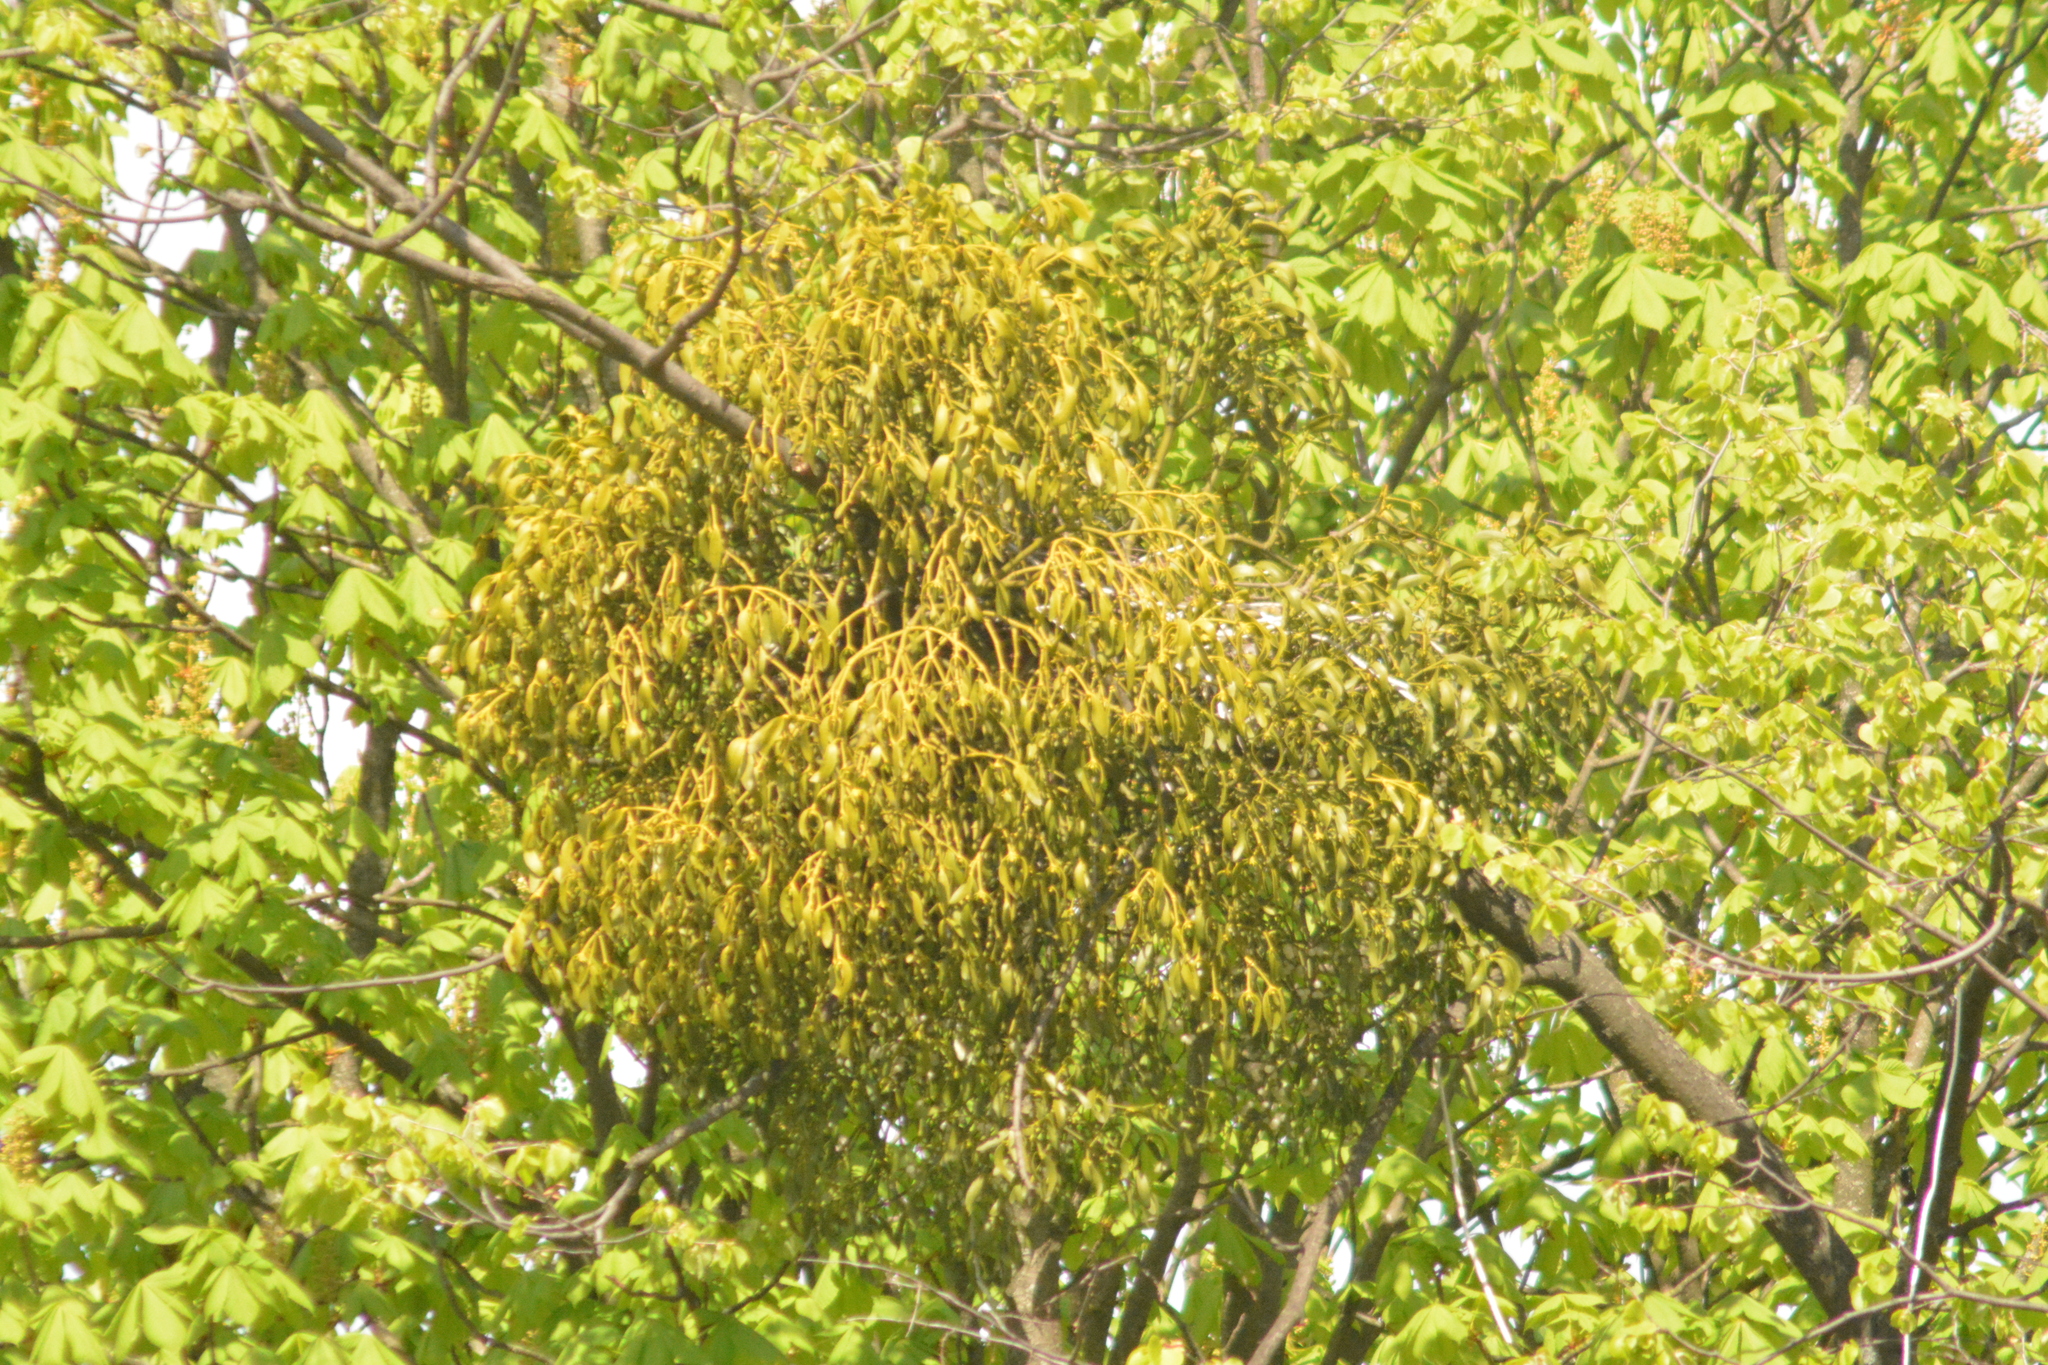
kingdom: Plantae
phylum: Tracheophyta
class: Magnoliopsida
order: Santalales
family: Viscaceae
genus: Viscum
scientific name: Viscum album
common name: Mistletoe
